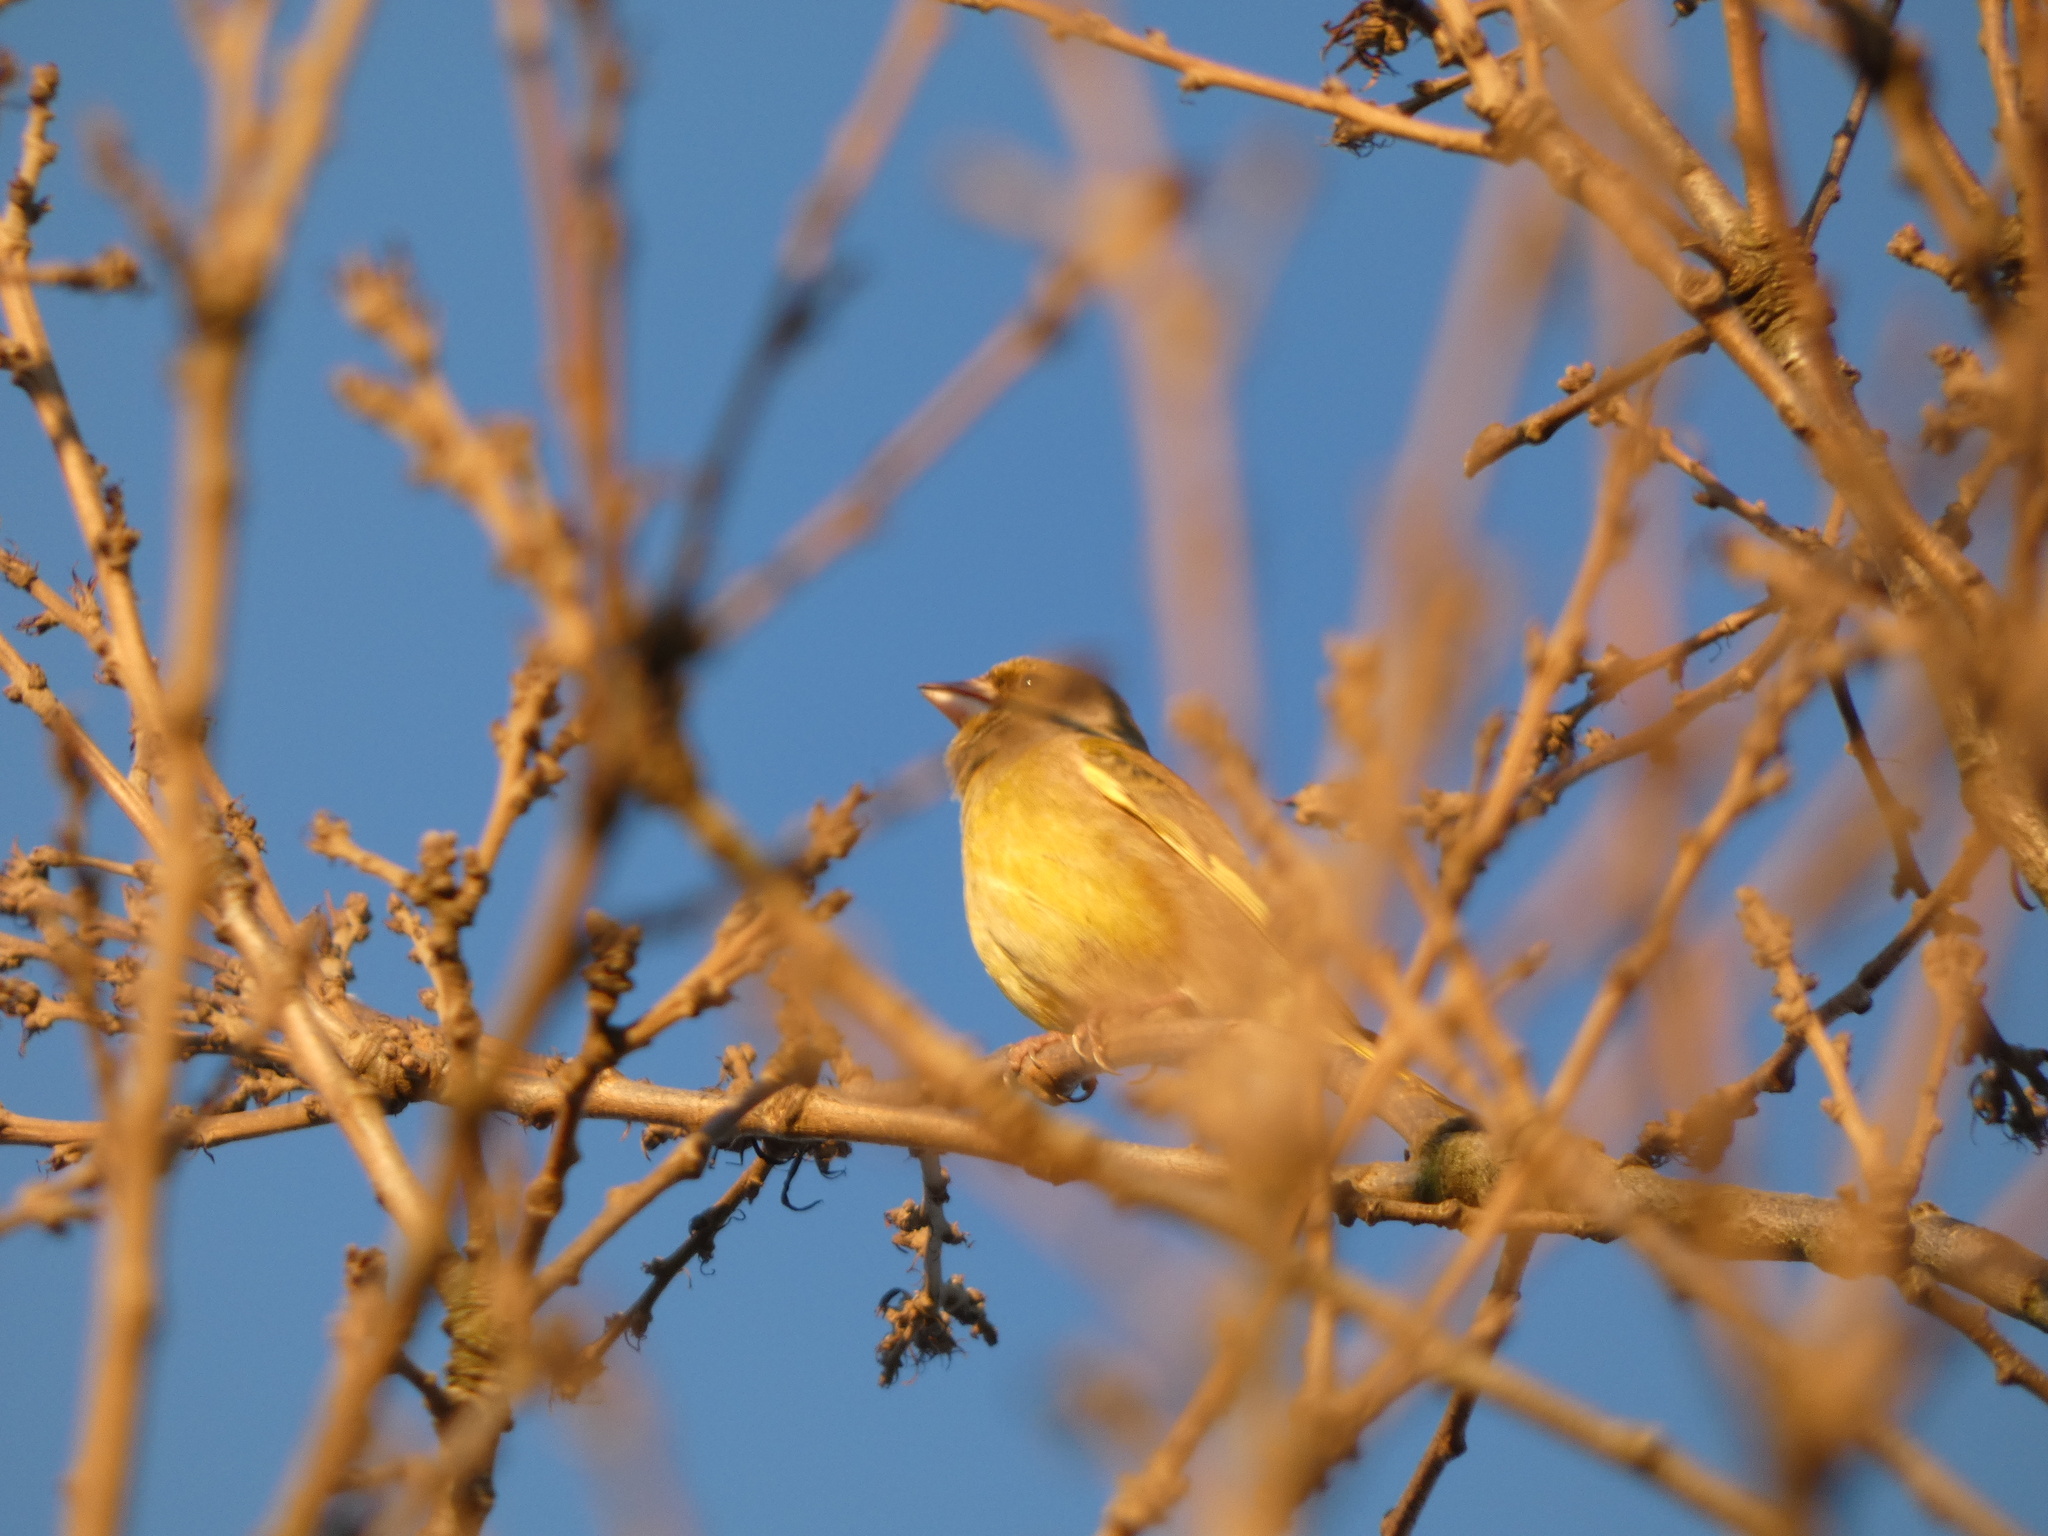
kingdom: Plantae
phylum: Tracheophyta
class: Liliopsida
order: Poales
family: Poaceae
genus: Chloris
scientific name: Chloris chloris
